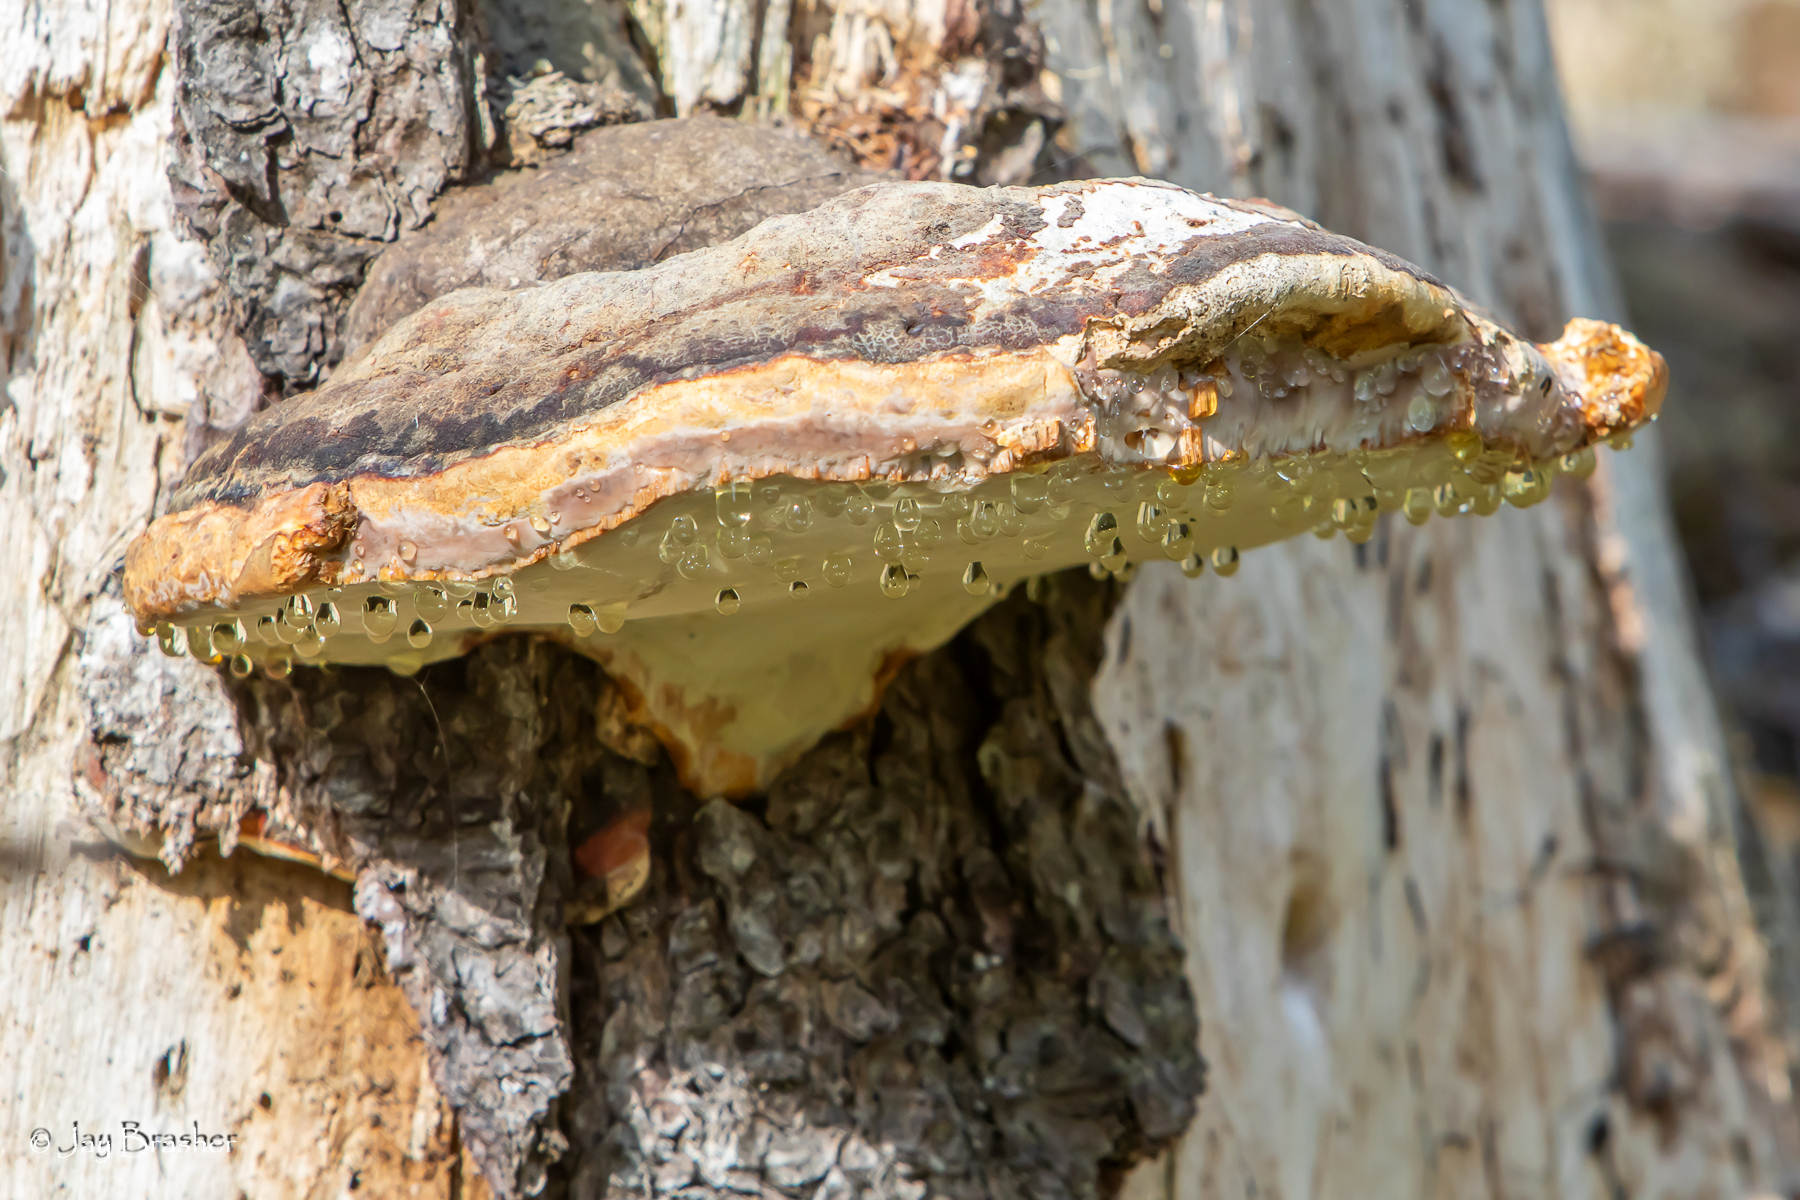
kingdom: Fungi
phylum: Basidiomycota
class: Agaricomycetes
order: Polyporales
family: Fomitopsidaceae
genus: Fomitopsis
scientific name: Fomitopsis mounceae
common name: Northern red belt
